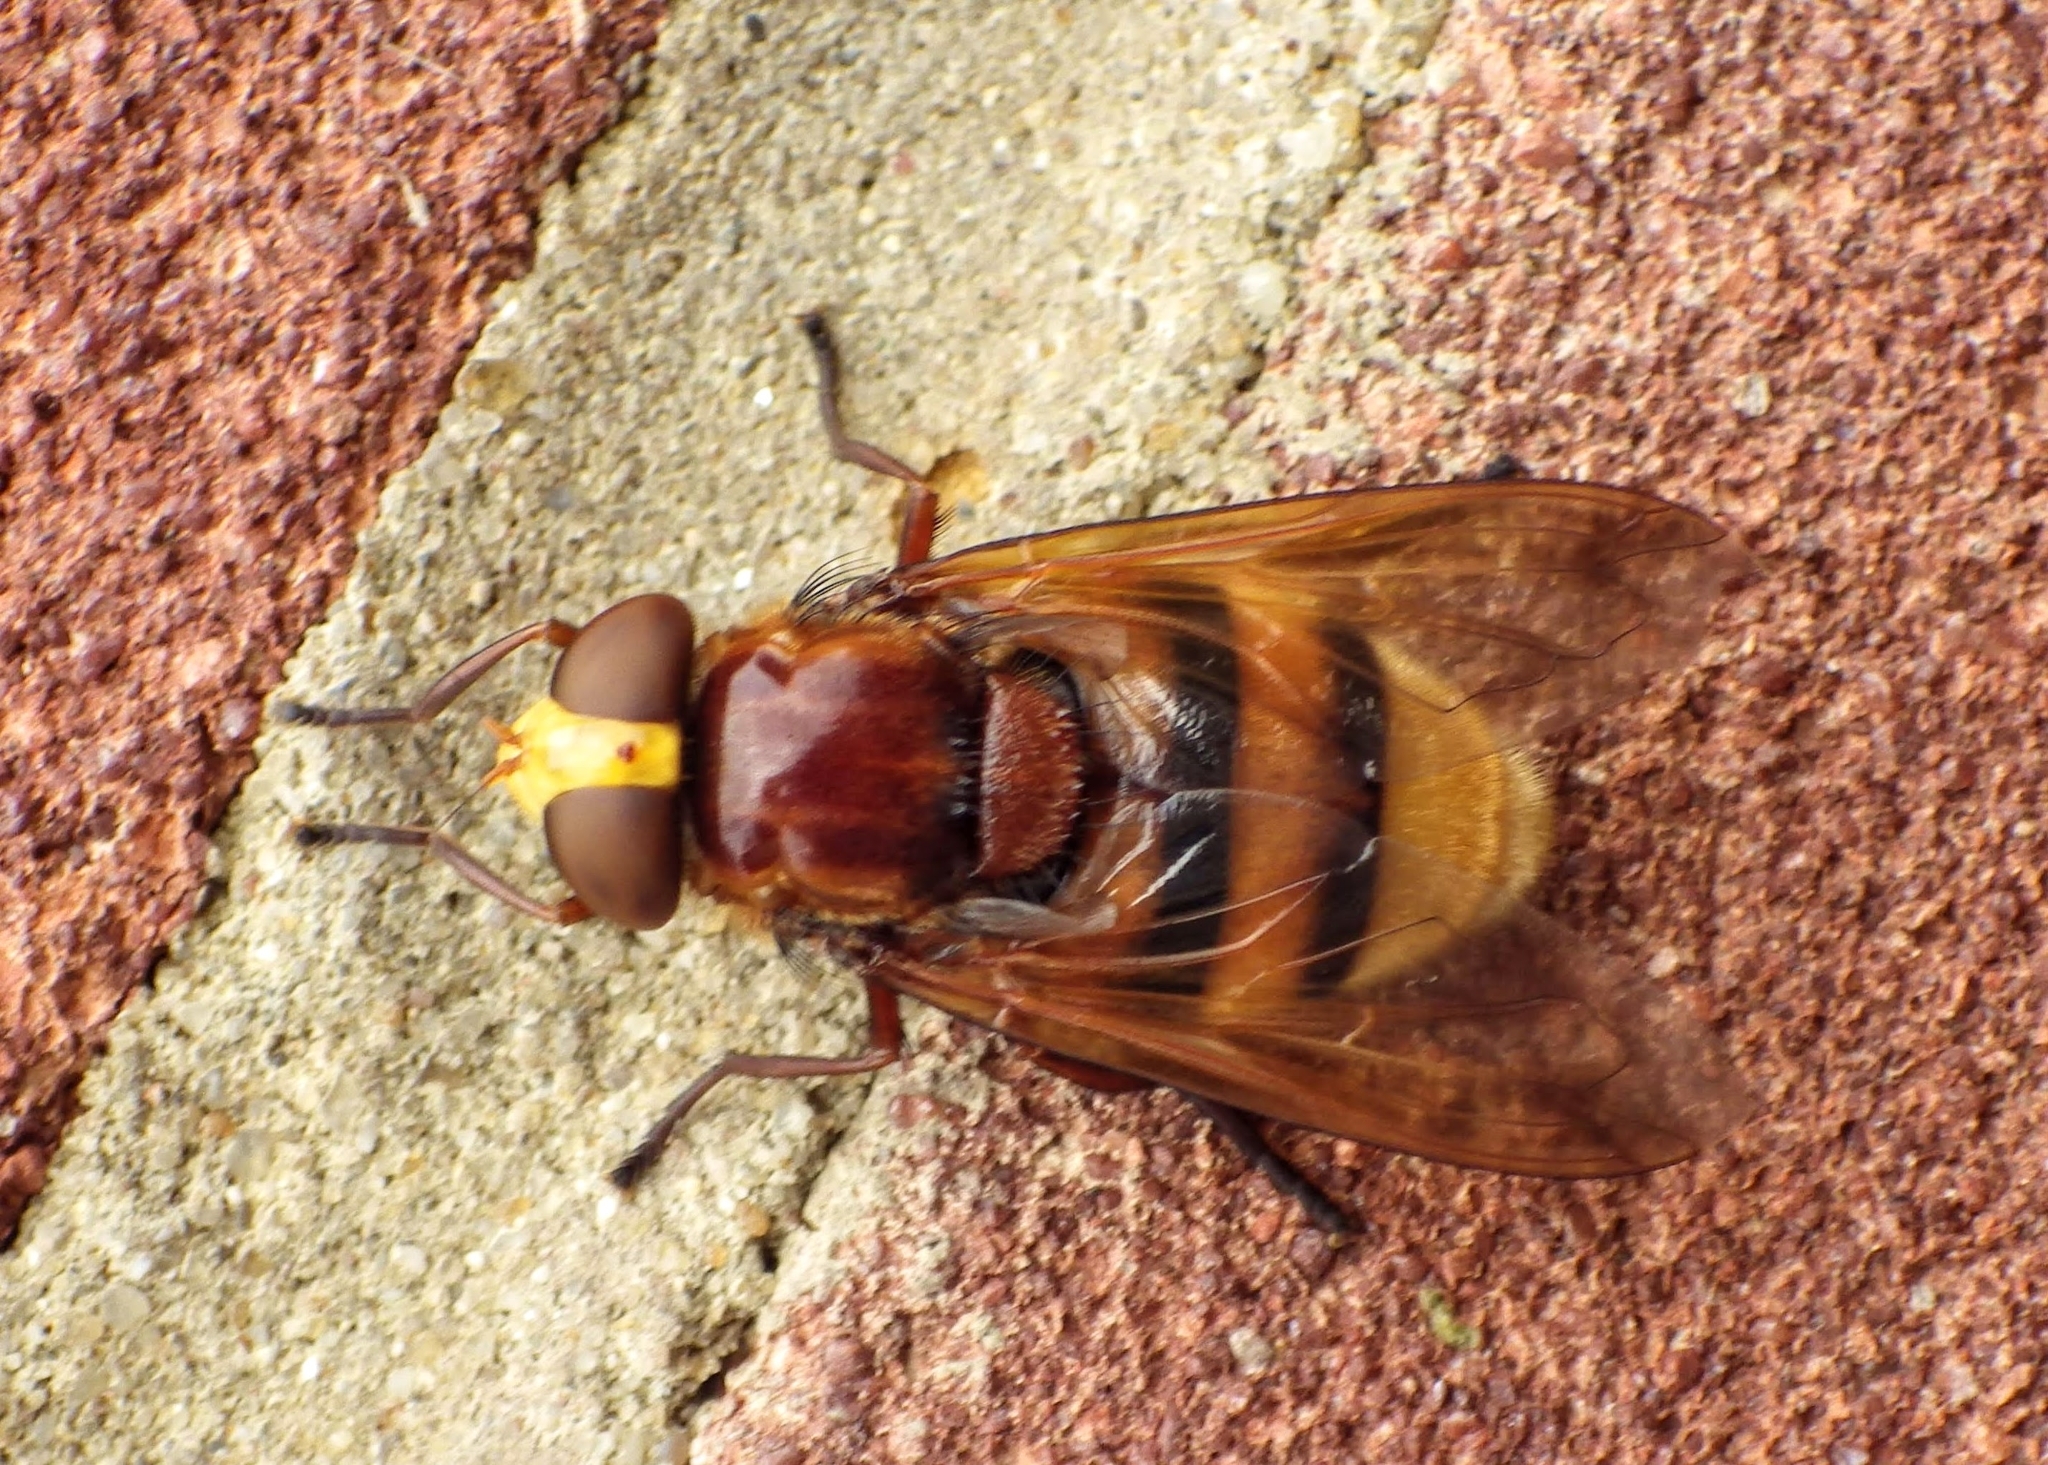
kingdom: Animalia
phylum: Arthropoda
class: Insecta
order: Diptera
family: Syrphidae
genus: Volucella
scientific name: Volucella zonaria
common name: Hornet hoverfly
